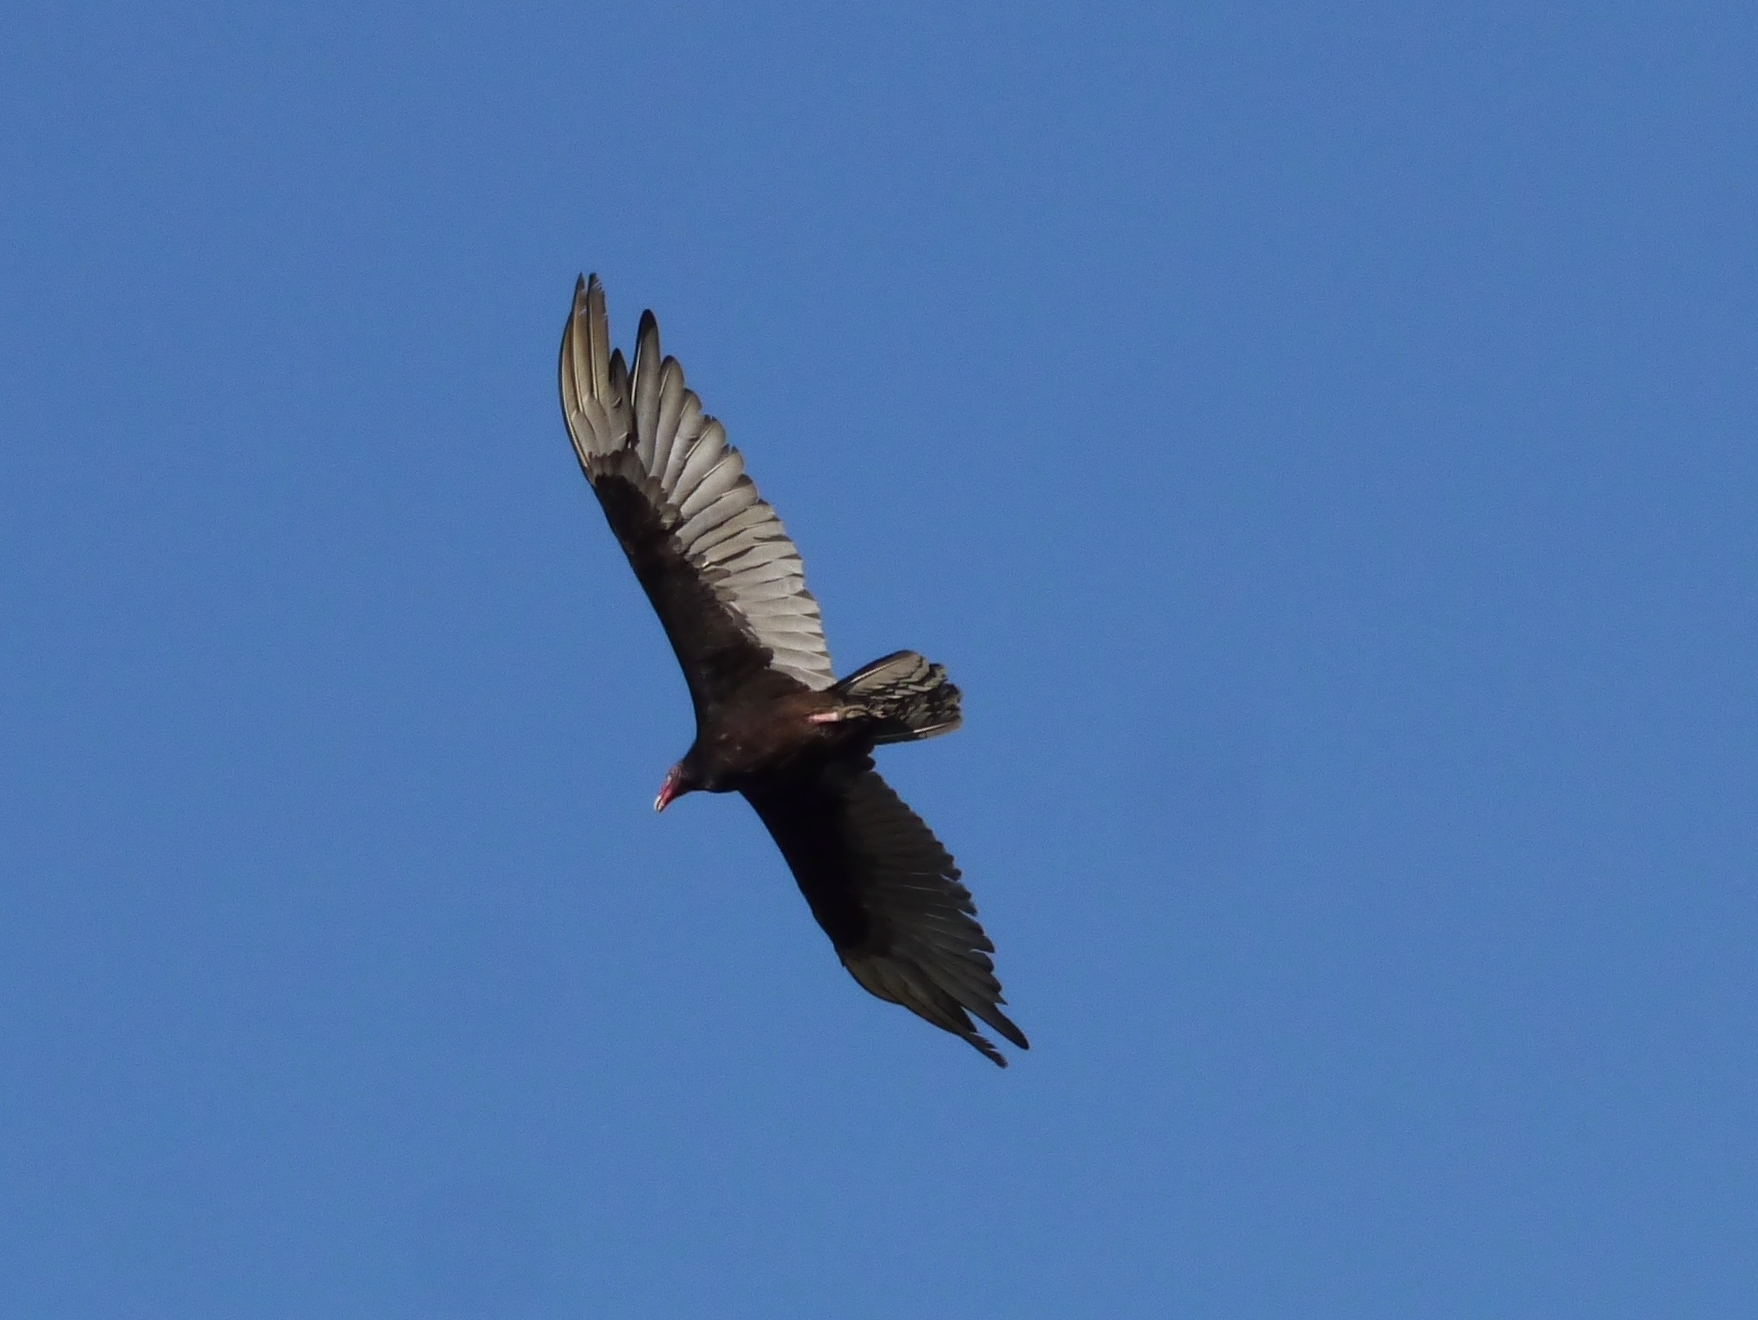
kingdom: Animalia
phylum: Chordata
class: Aves
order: Accipitriformes
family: Cathartidae
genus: Cathartes
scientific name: Cathartes aura
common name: Turkey vulture
